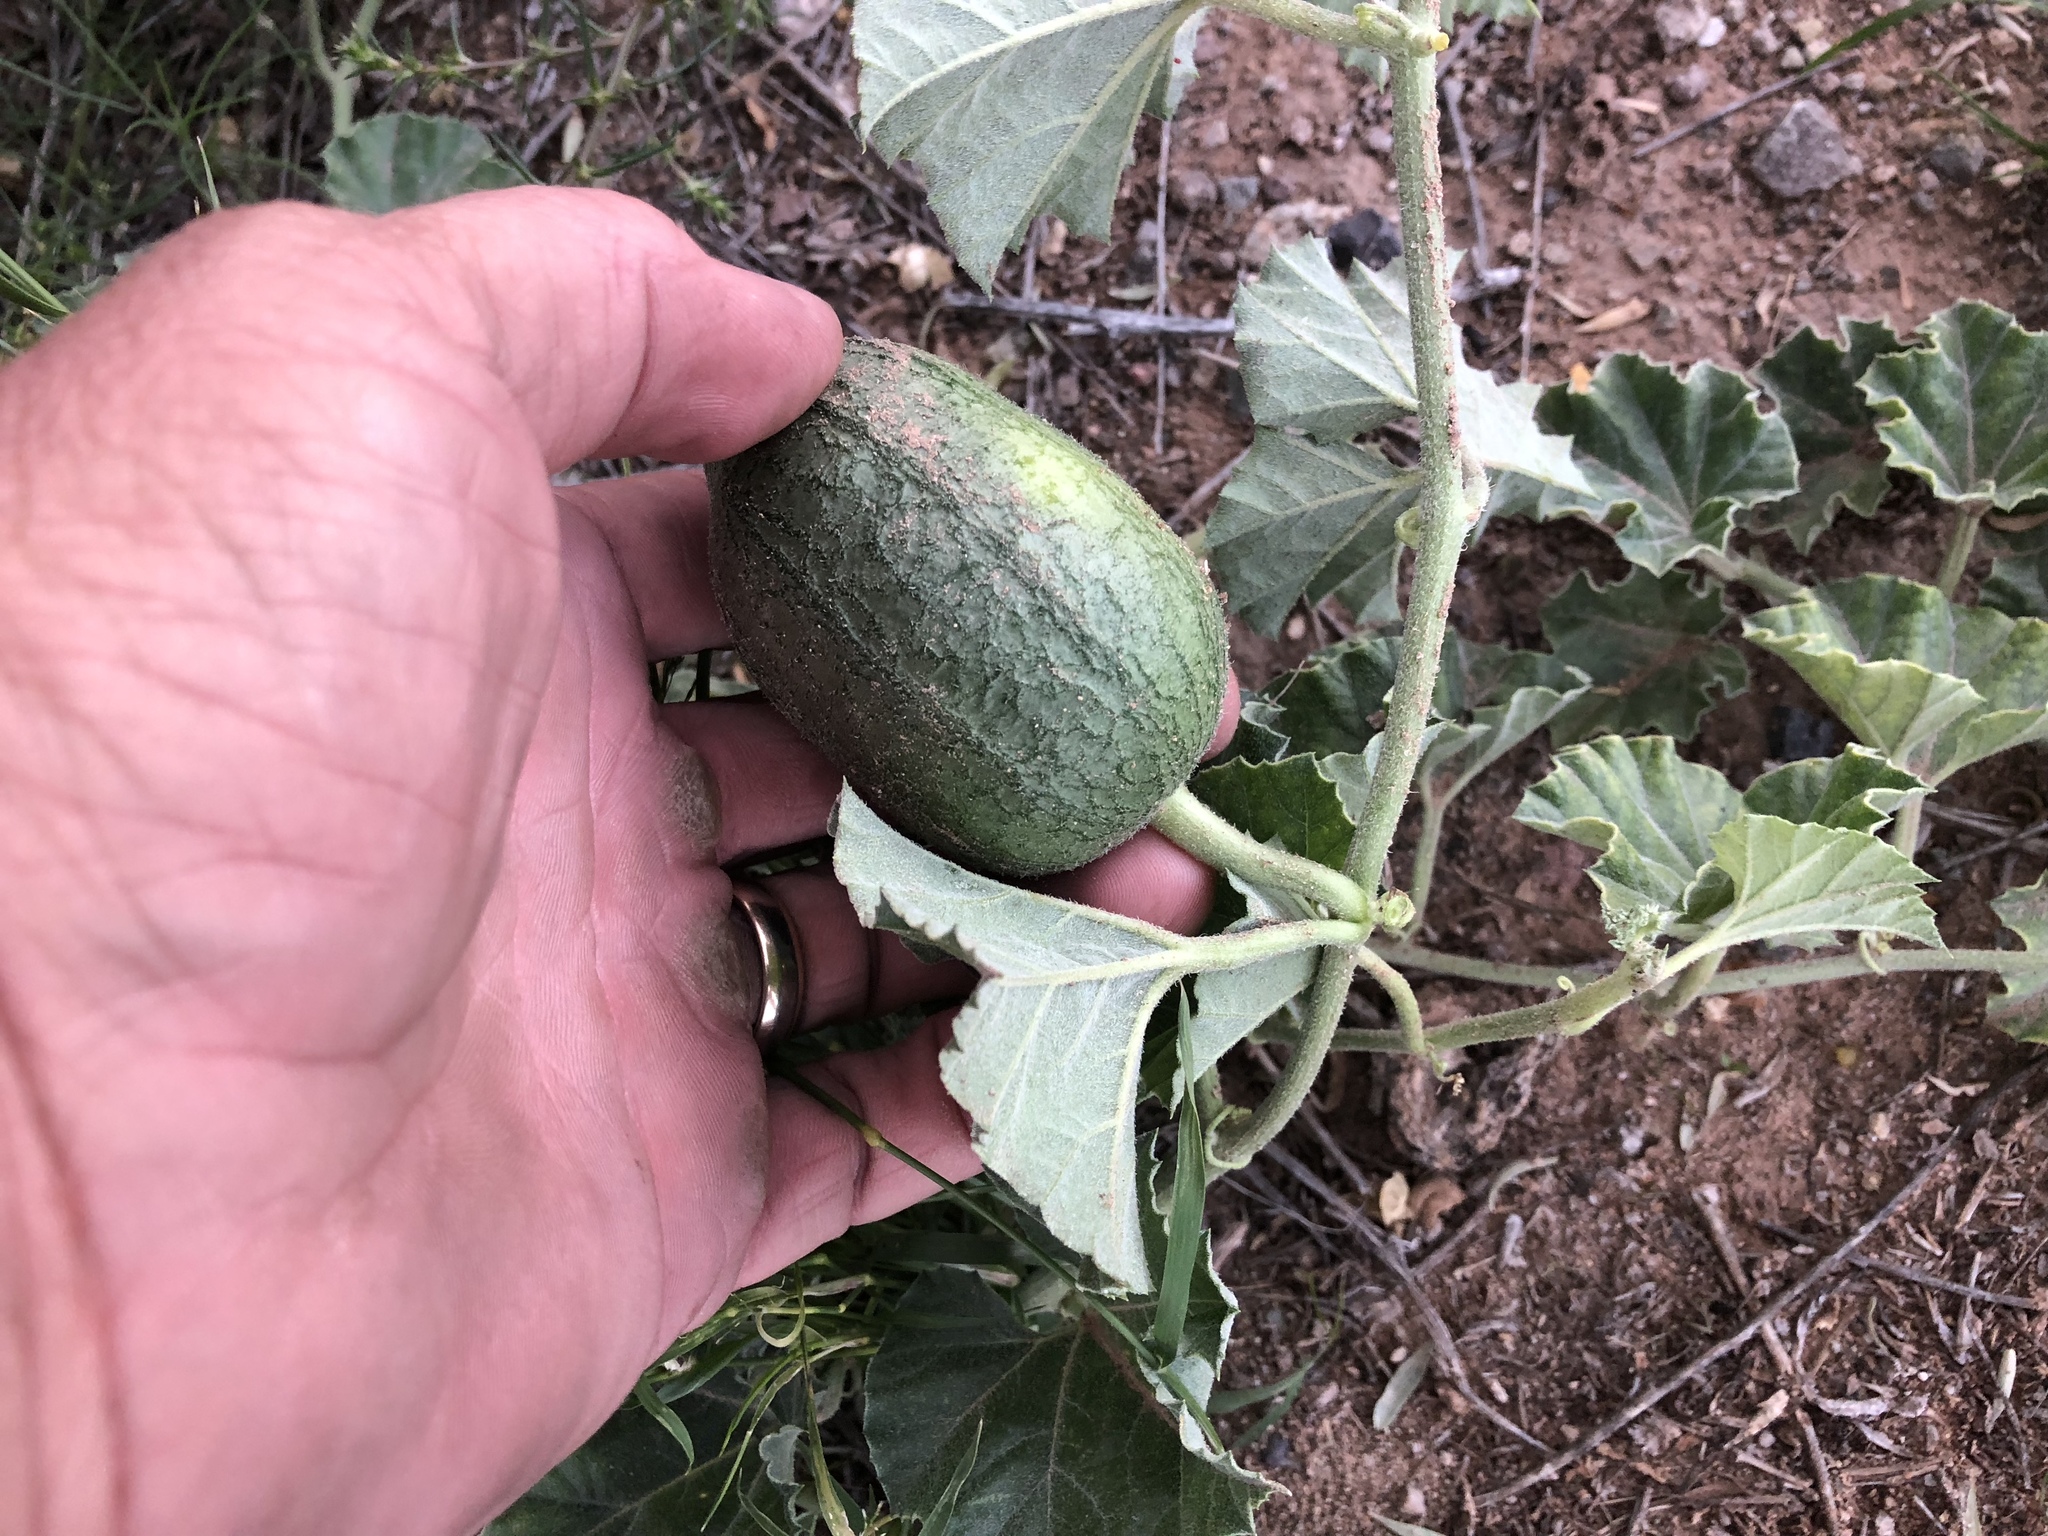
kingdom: Plantae
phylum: Tracheophyta
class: Magnoliopsida
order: Cucurbitales
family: Cucurbitaceae
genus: Apodanthera
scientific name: Apodanthera undulata
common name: Melon-loco
